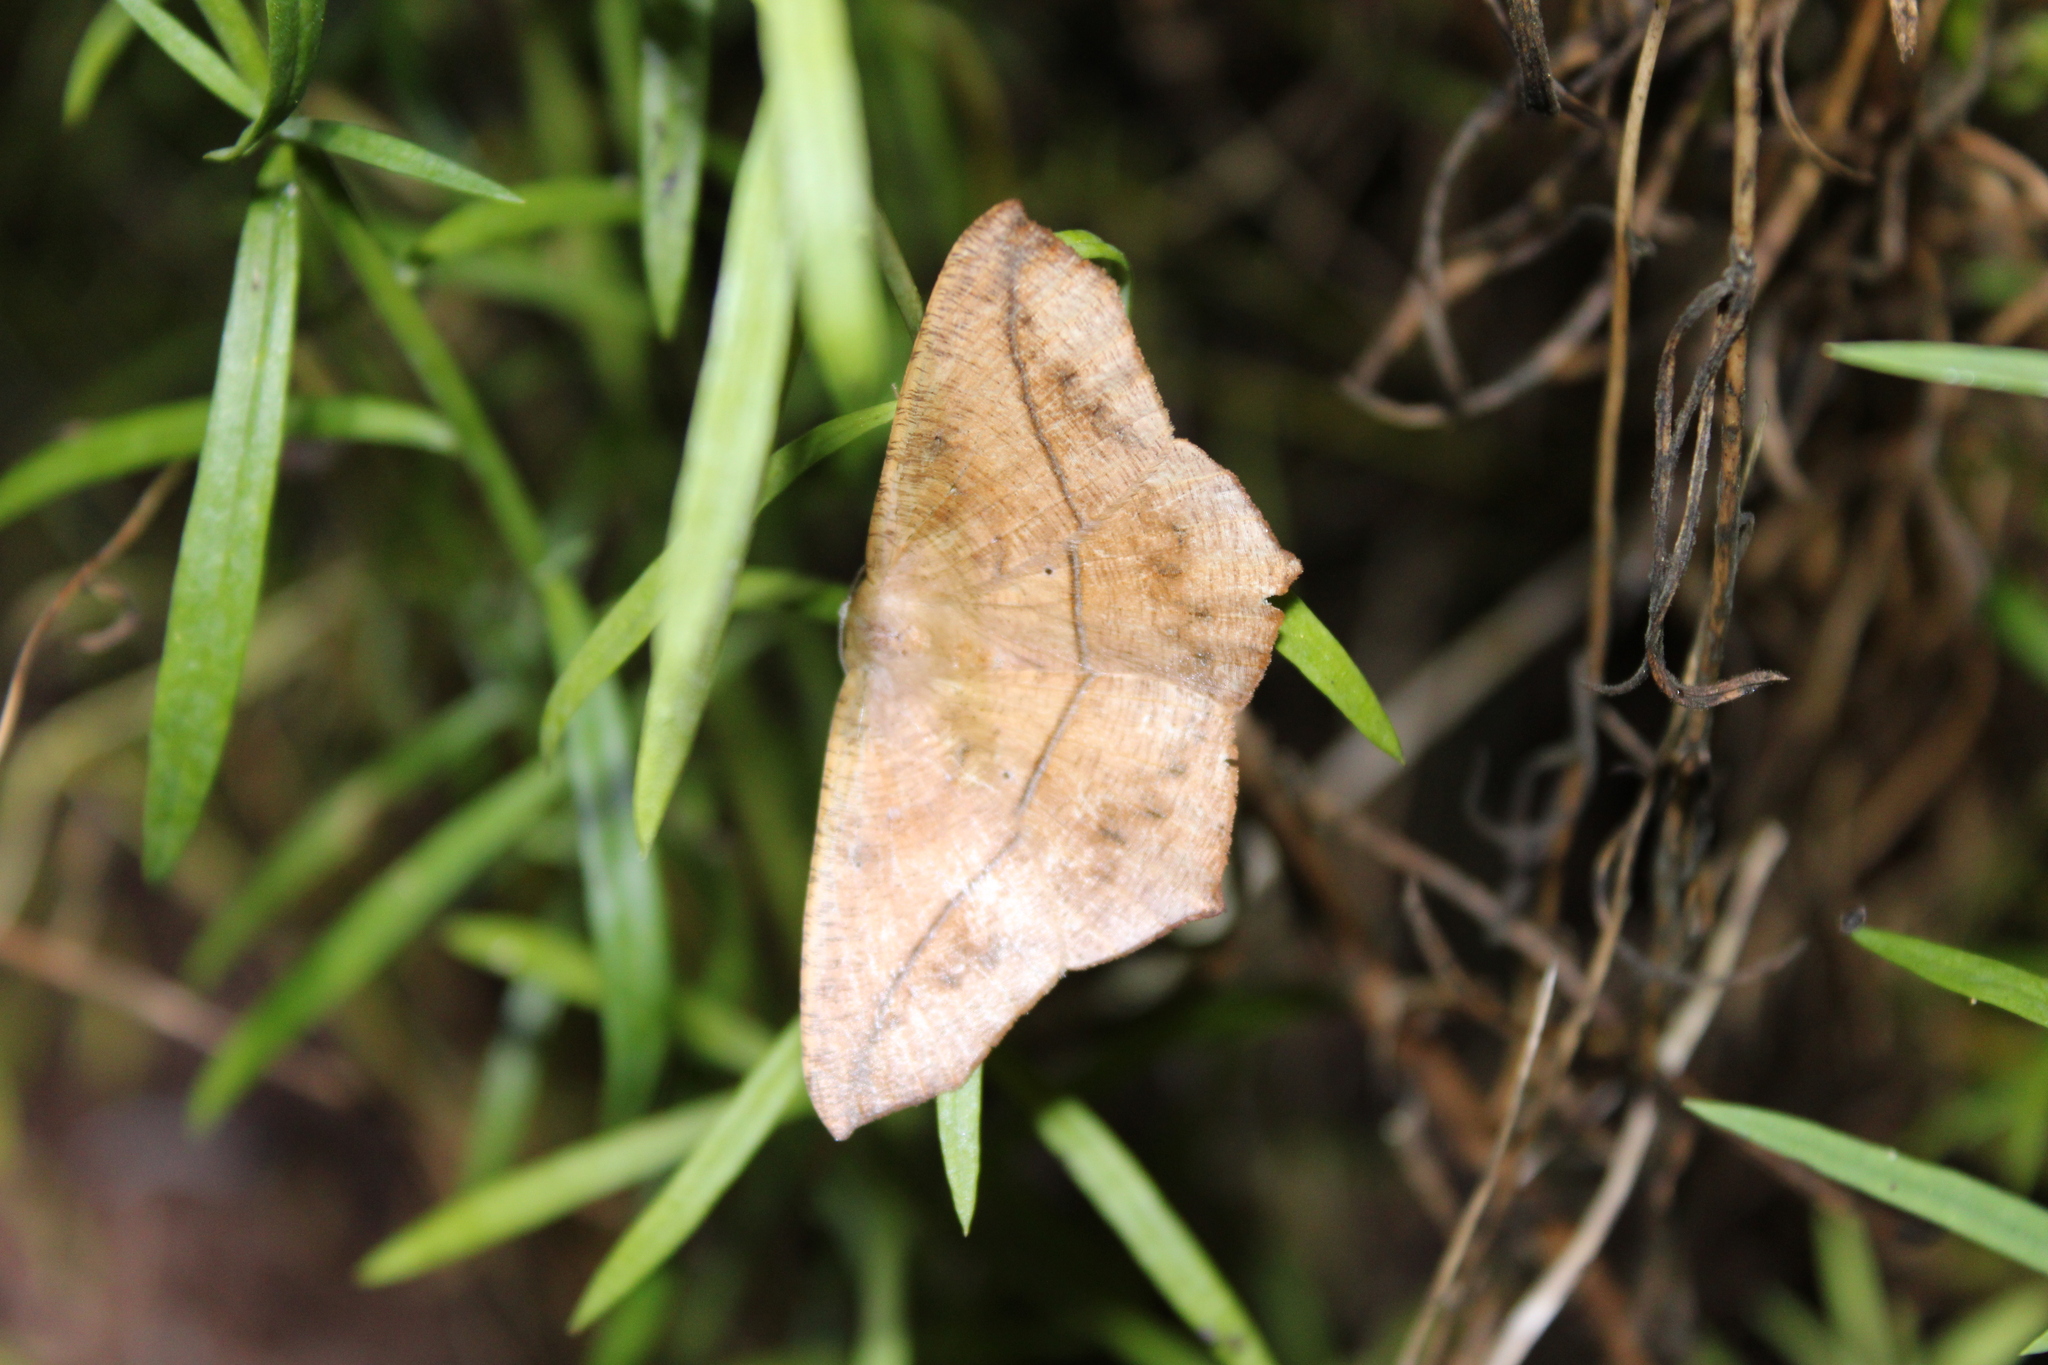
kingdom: Animalia
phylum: Arthropoda
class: Insecta
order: Lepidoptera
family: Geometridae
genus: Prochoerodes
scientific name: Prochoerodes lineola
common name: Large maple spanworm
